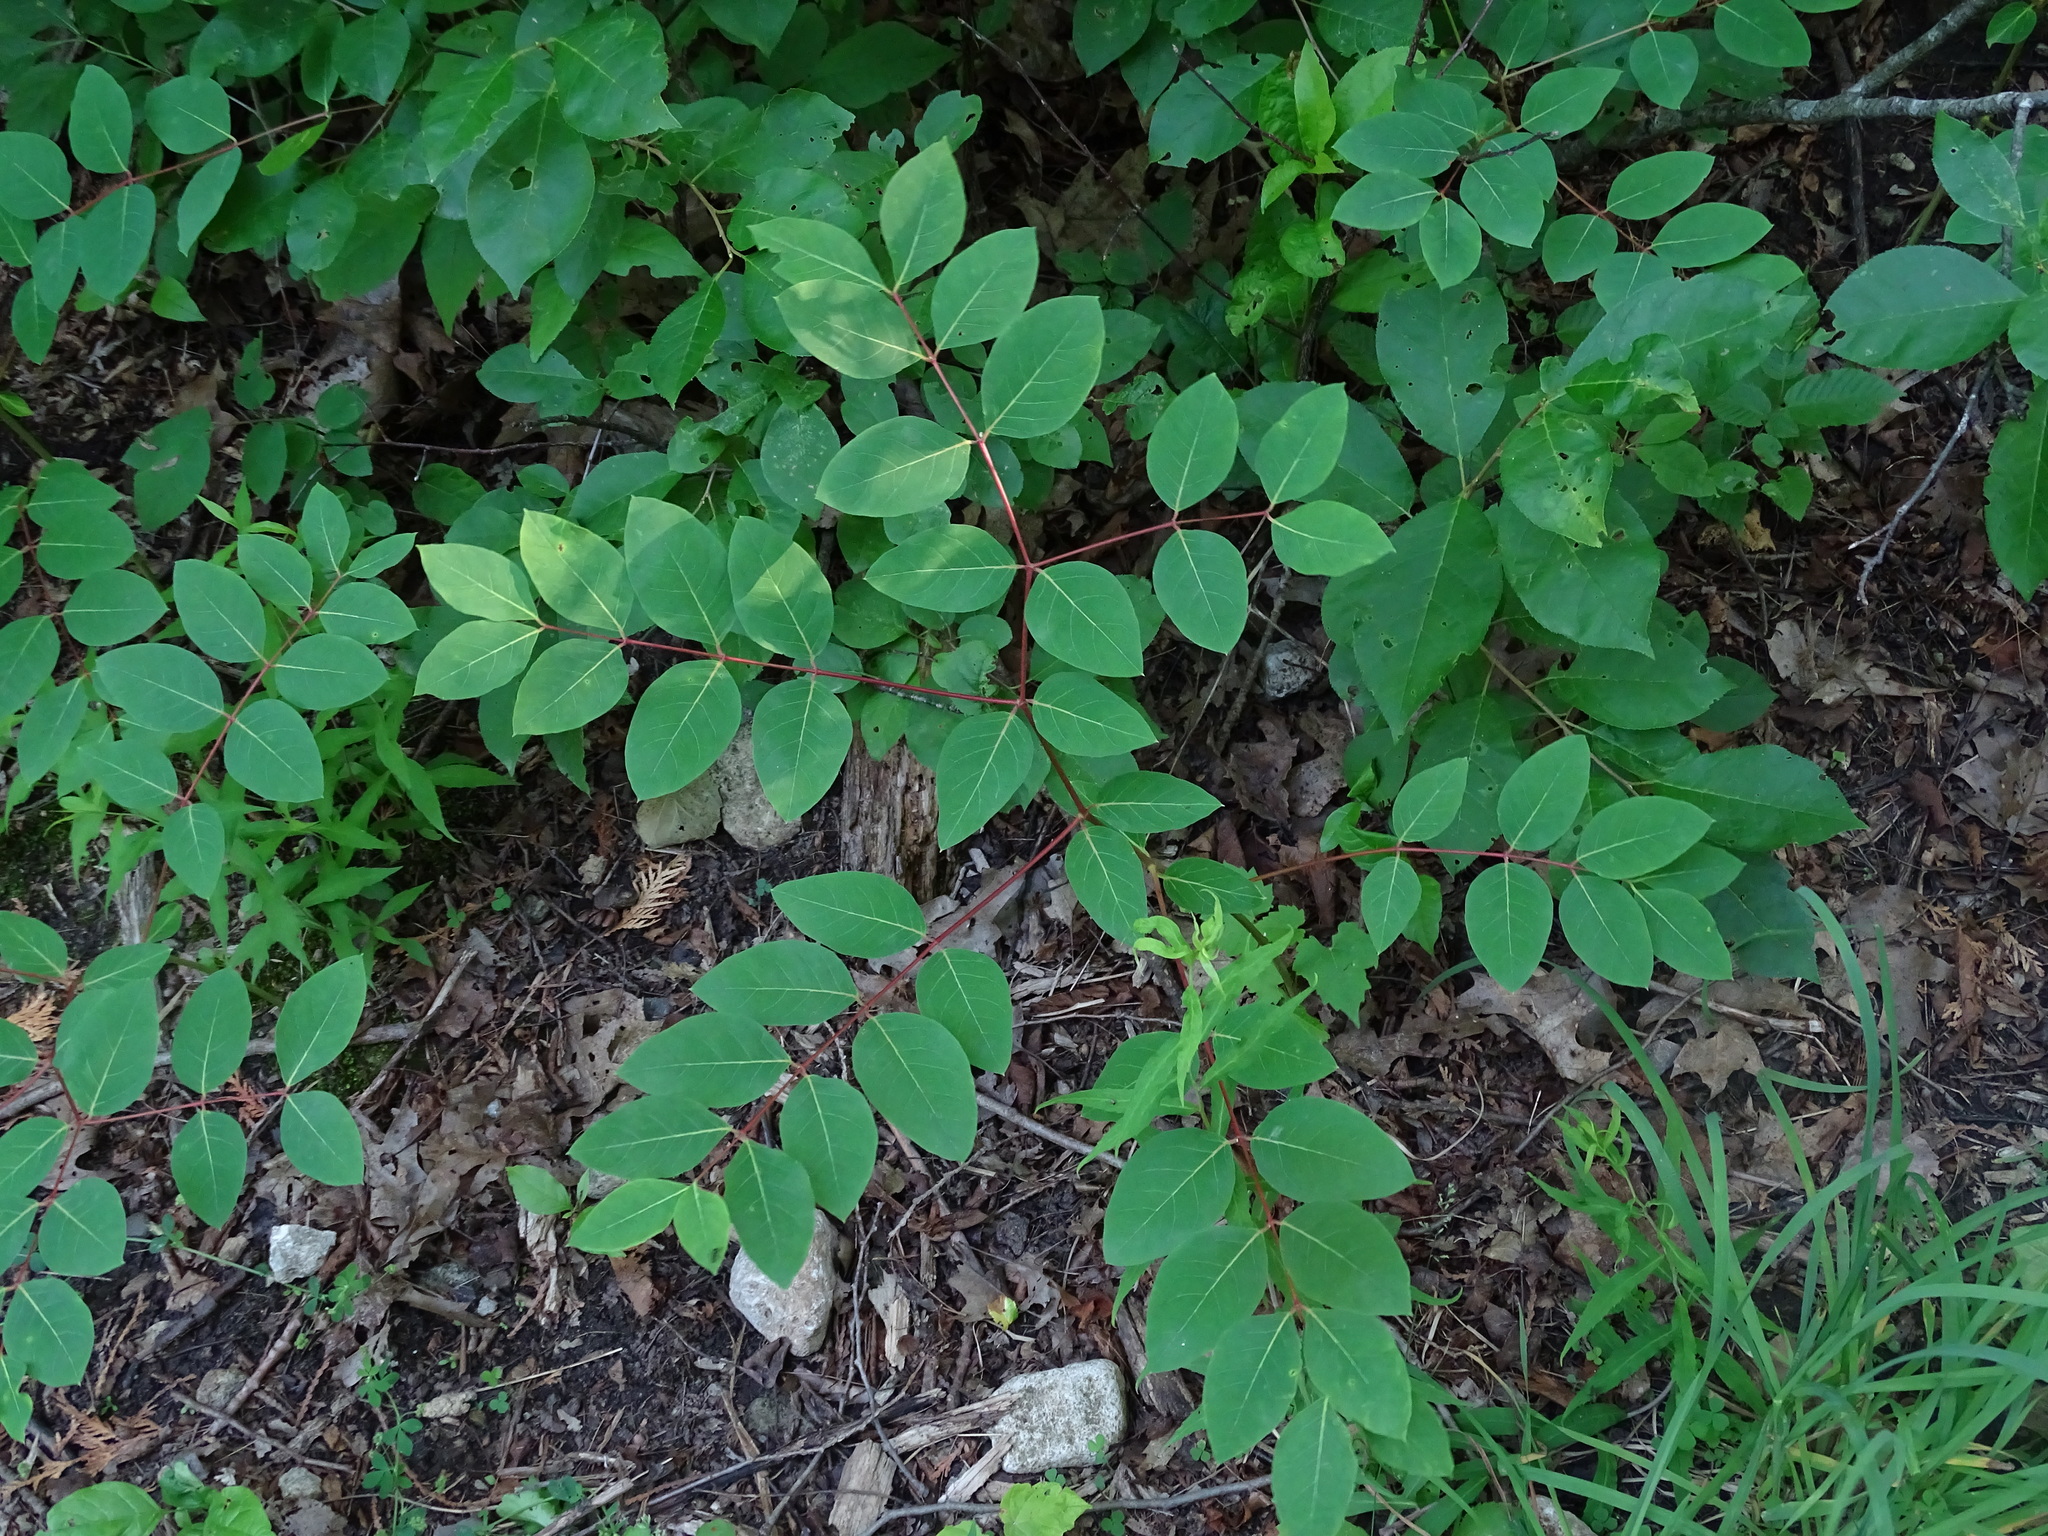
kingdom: Plantae
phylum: Tracheophyta
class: Magnoliopsida
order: Gentianales
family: Apocynaceae
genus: Apocynum
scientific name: Apocynum androsaemifolium
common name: Spreading dogbane
